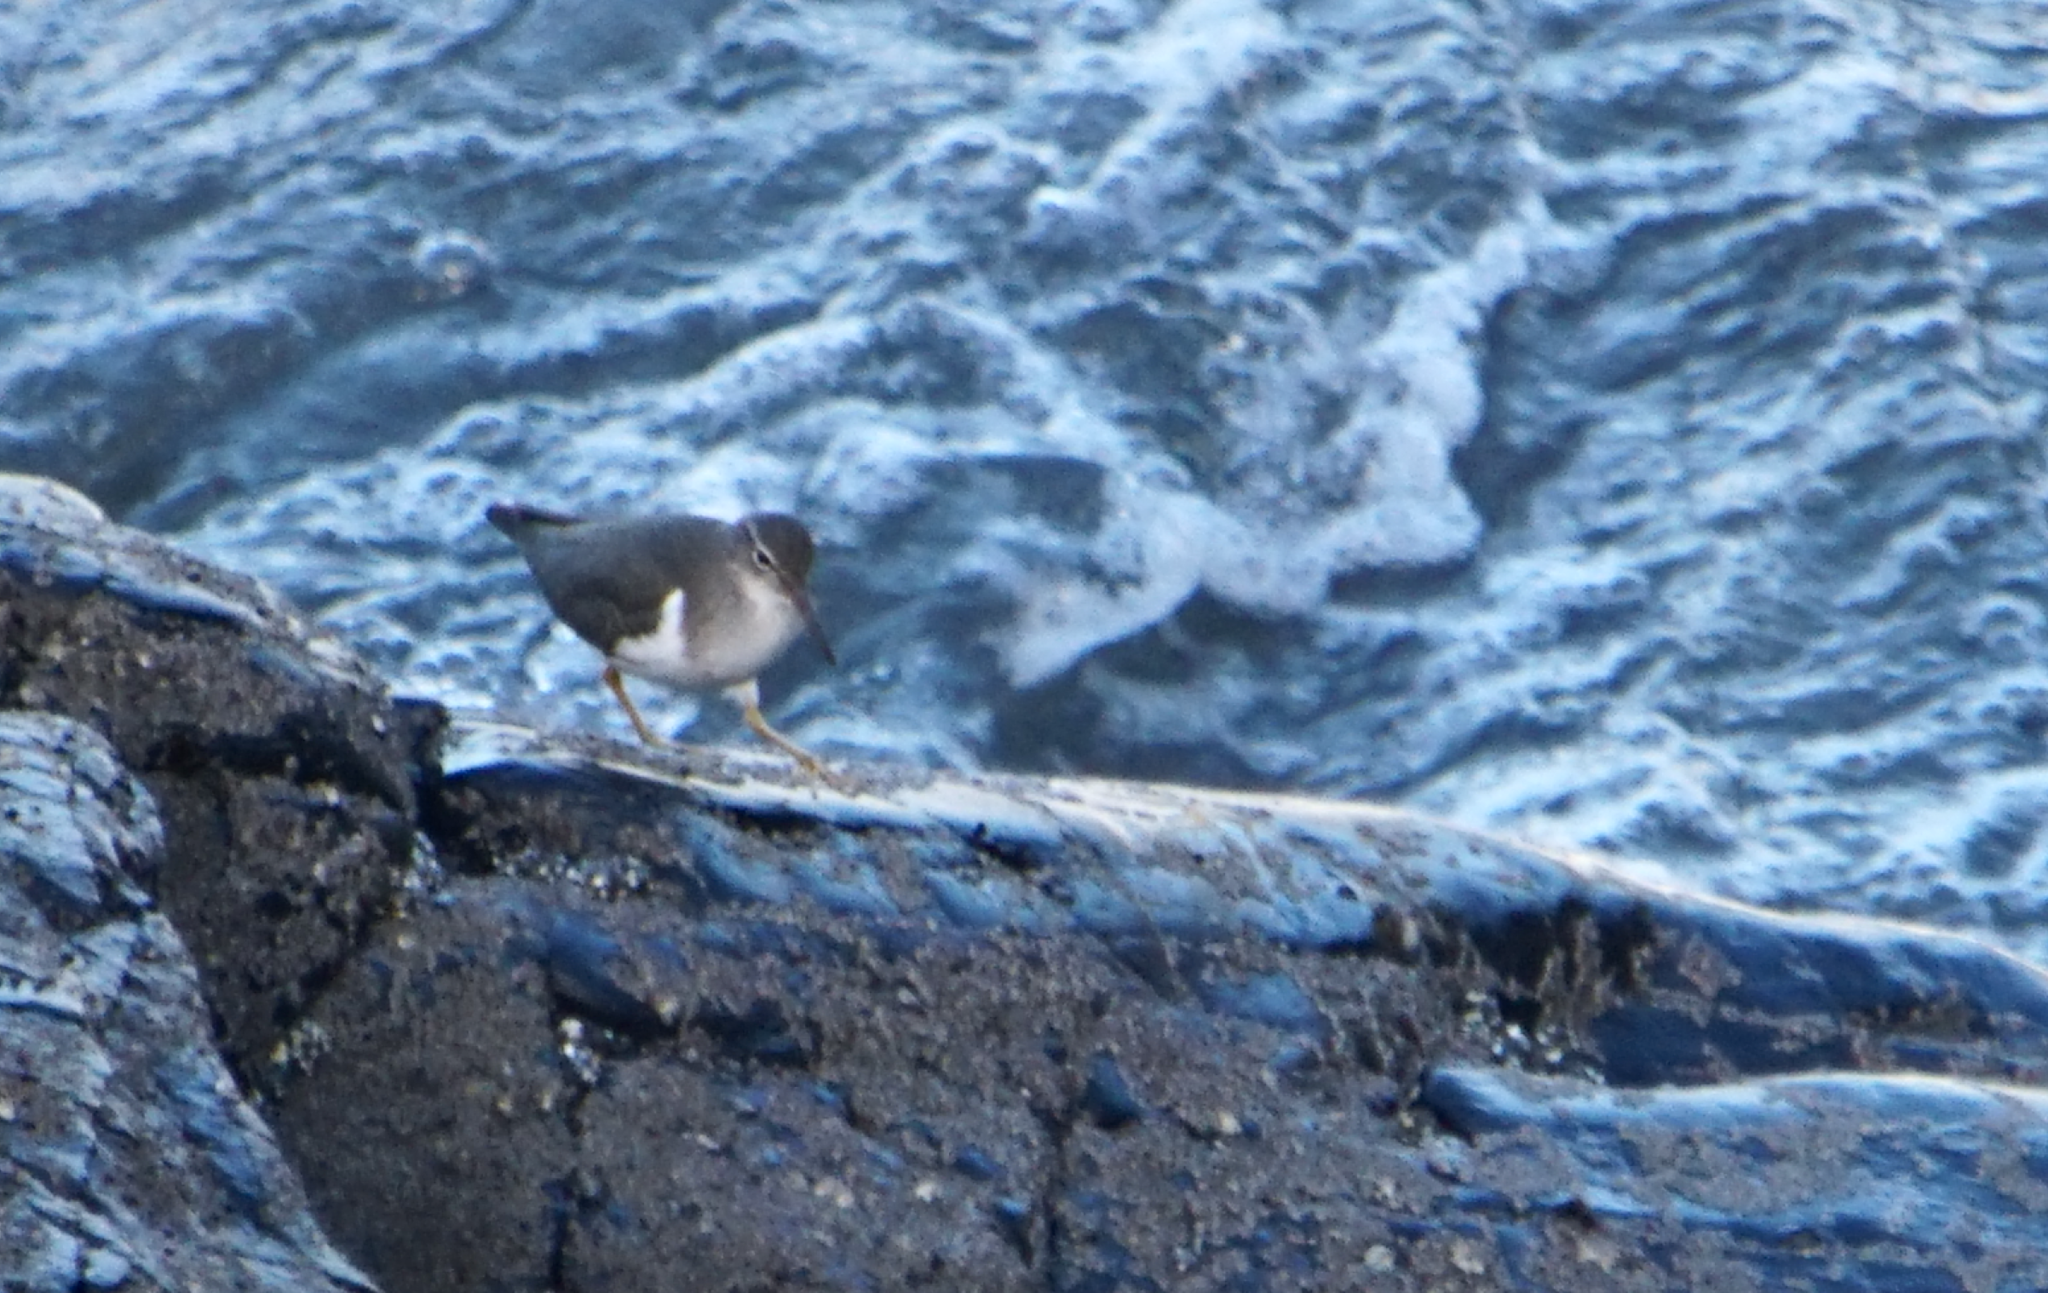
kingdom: Animalia
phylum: Chordata
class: Aves
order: Charadriiformes
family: Scolopacidae
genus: Actitis
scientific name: Actitis macularius
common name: Spotted sandpiper
